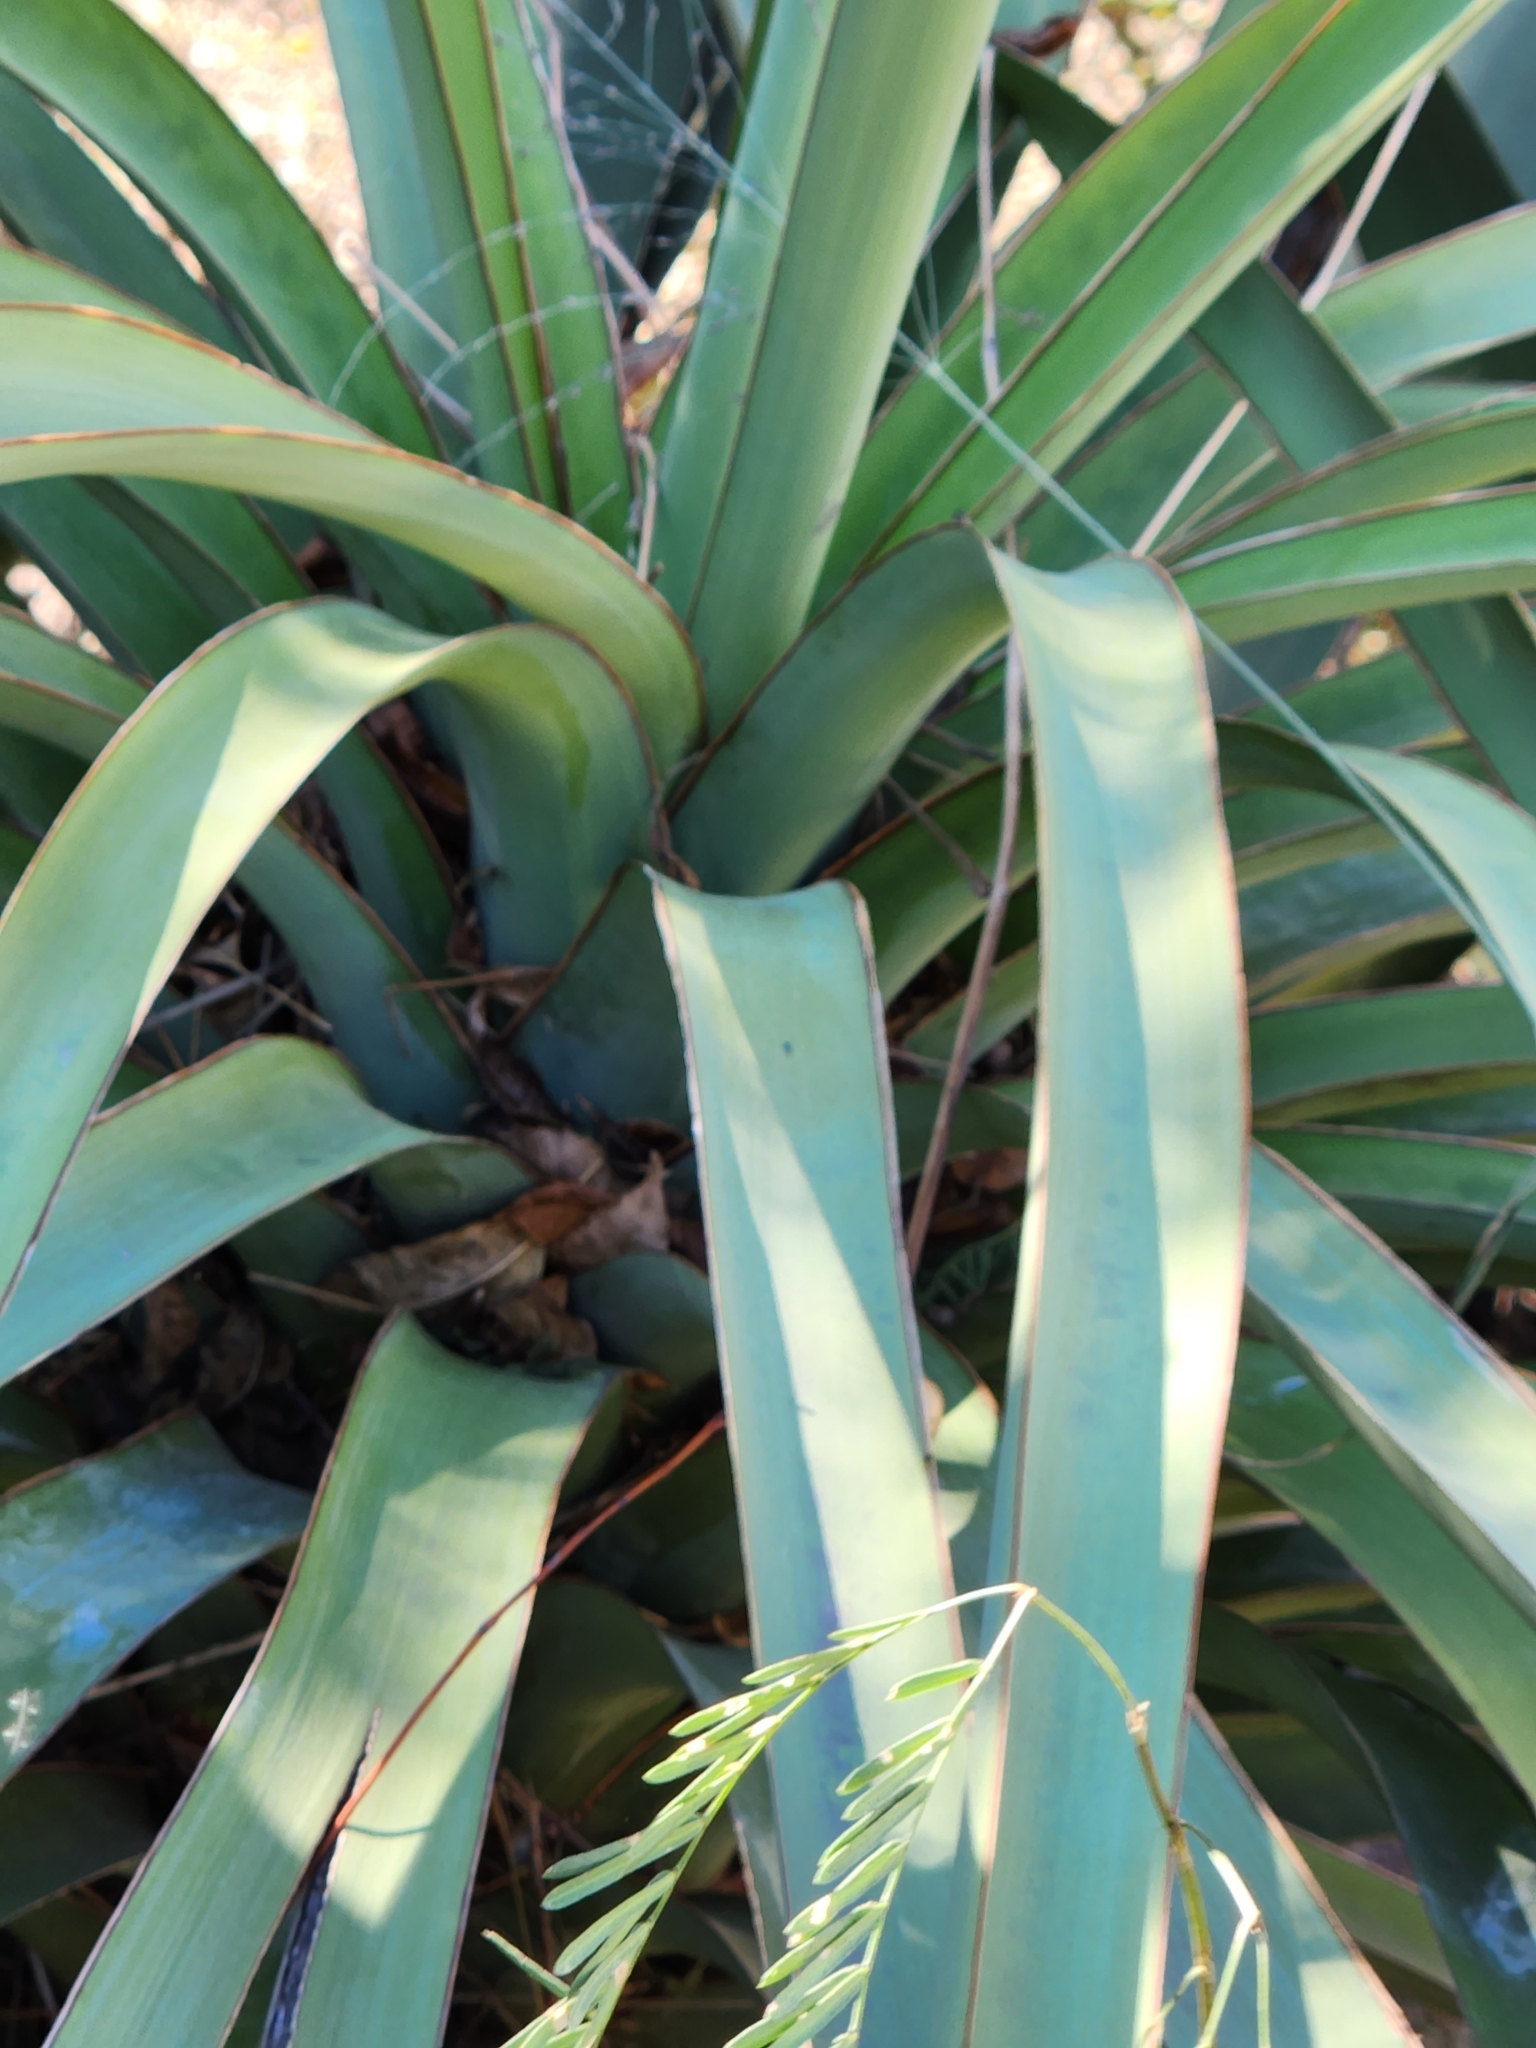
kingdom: Plantae
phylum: Tracheophyta
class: Liliopsida
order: Asparagales
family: Asparagaceae
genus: Yucca
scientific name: Yucca treculiana
